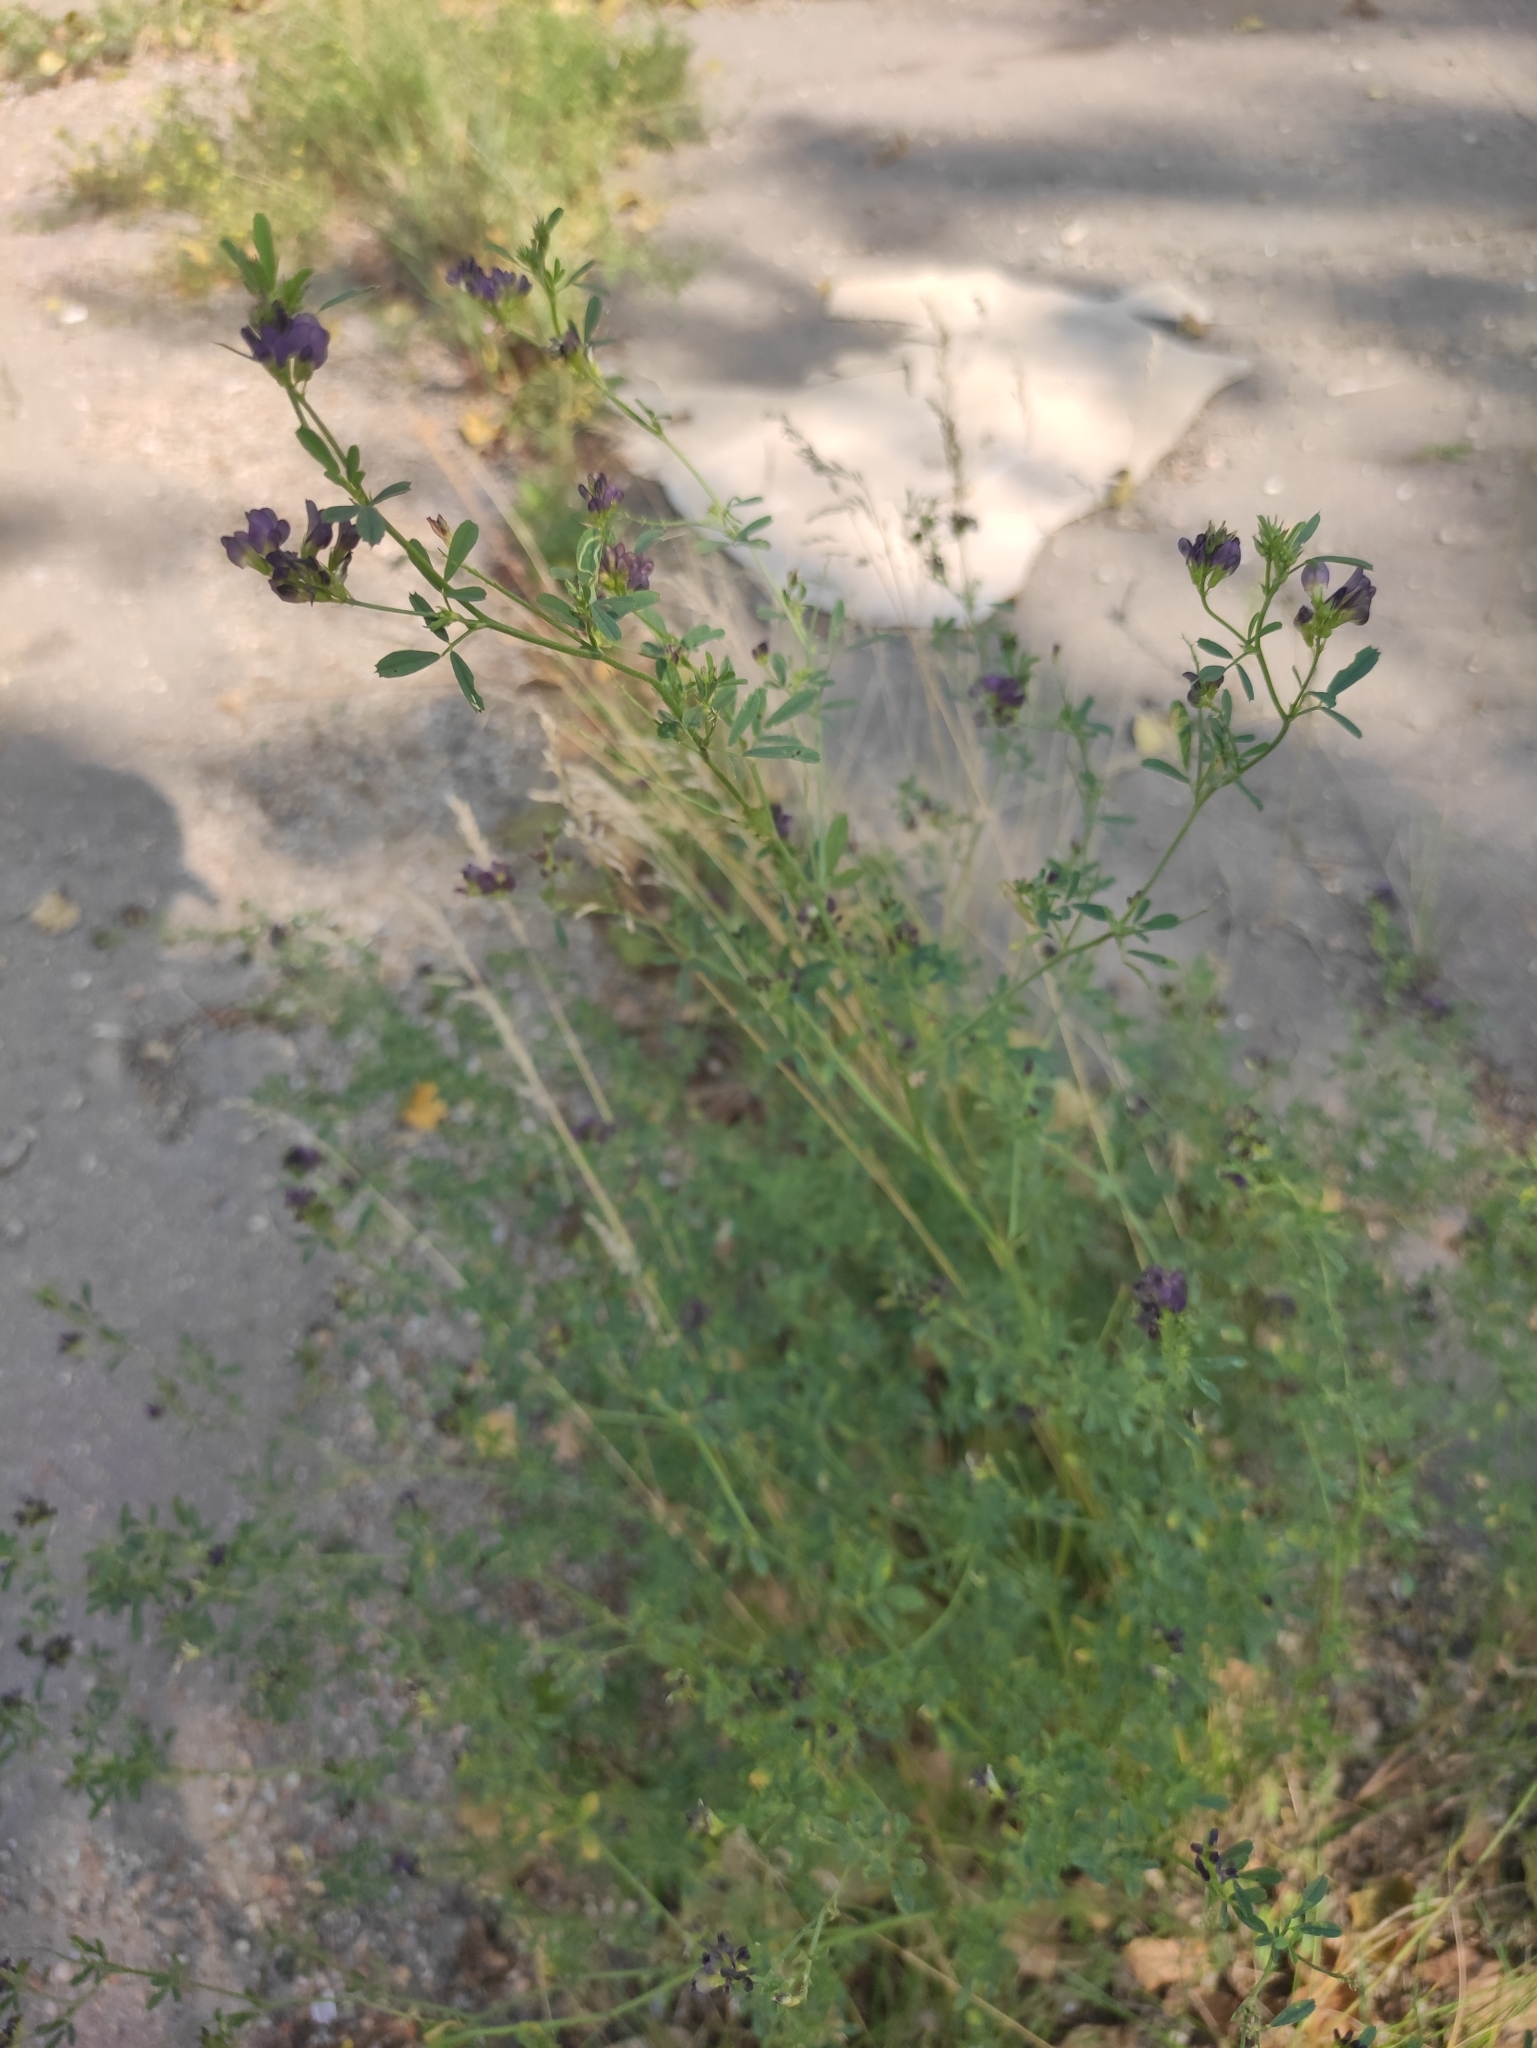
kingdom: Plantae
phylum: Tracheophyta
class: Magnoliopsida
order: Fabales
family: Fabaceae
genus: Medicago
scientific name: Medicago varia
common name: Sand lucerne
